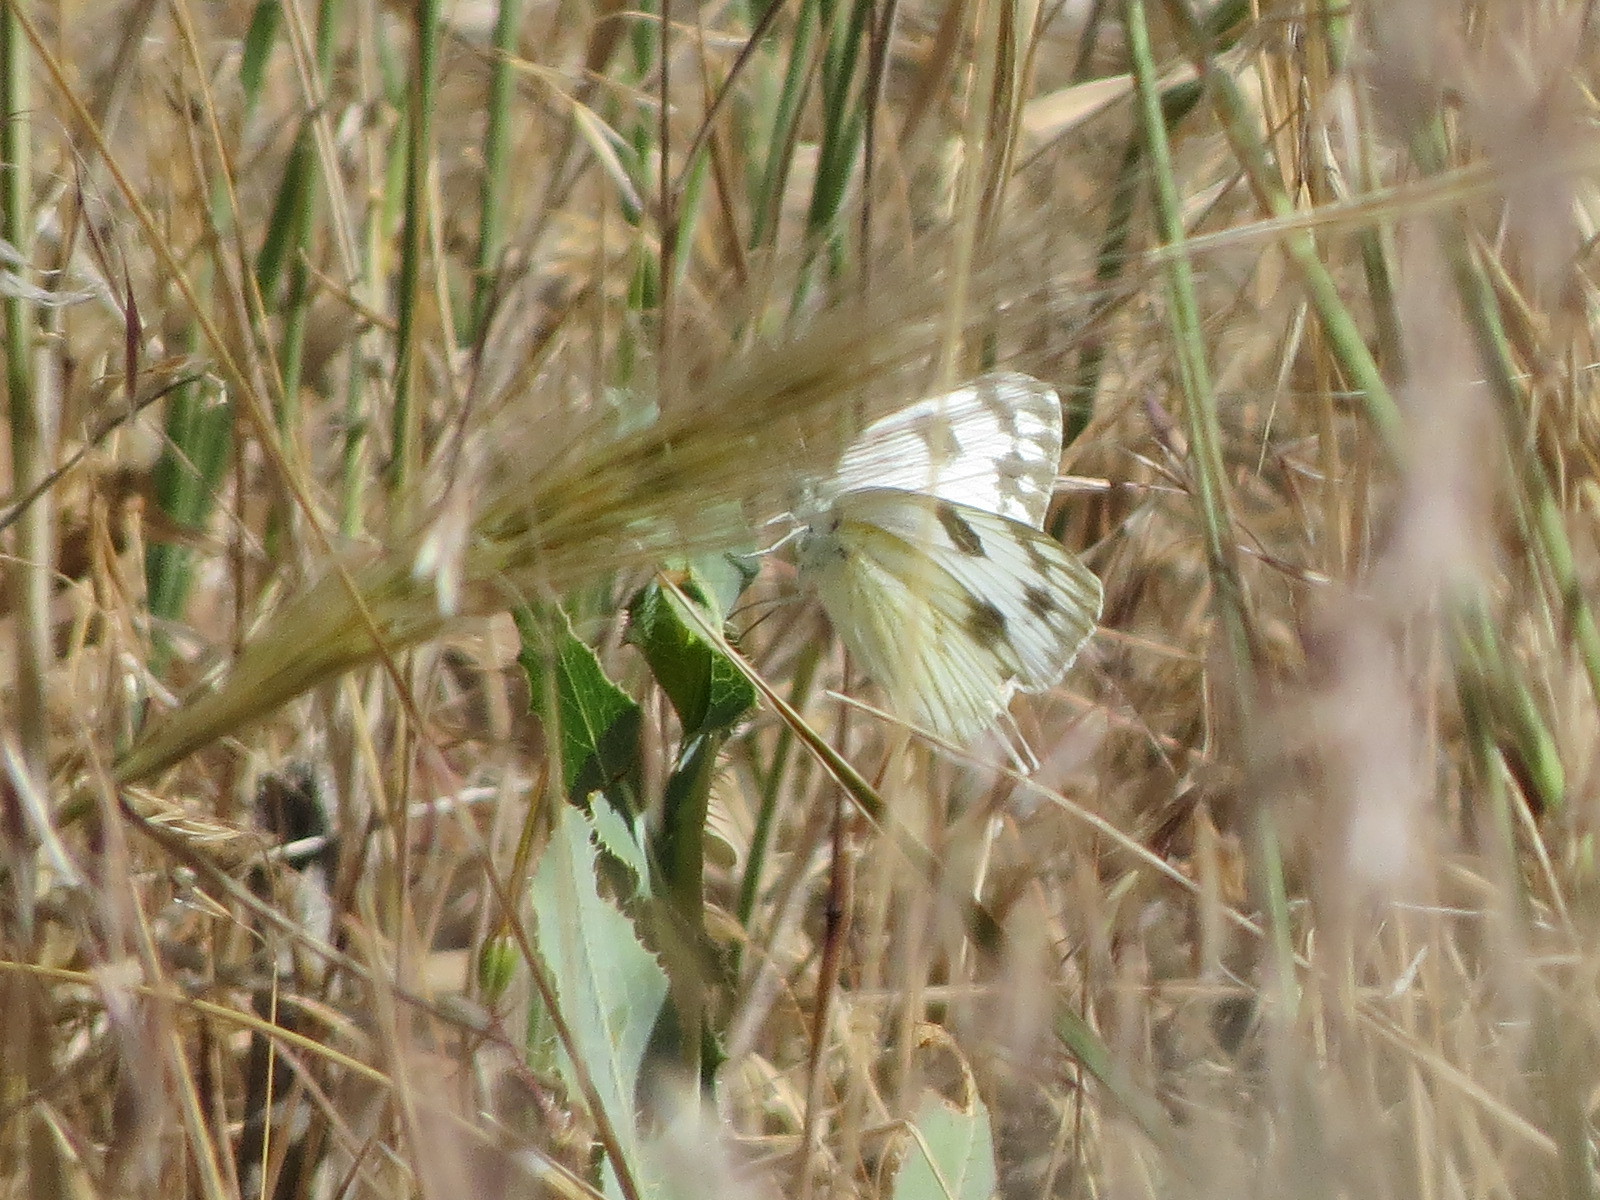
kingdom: Animalia
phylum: Arthropoda
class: Insecta
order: Lepidoptera
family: Pieridae
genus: Pontia
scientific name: Pontia occidentalis
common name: Western white
